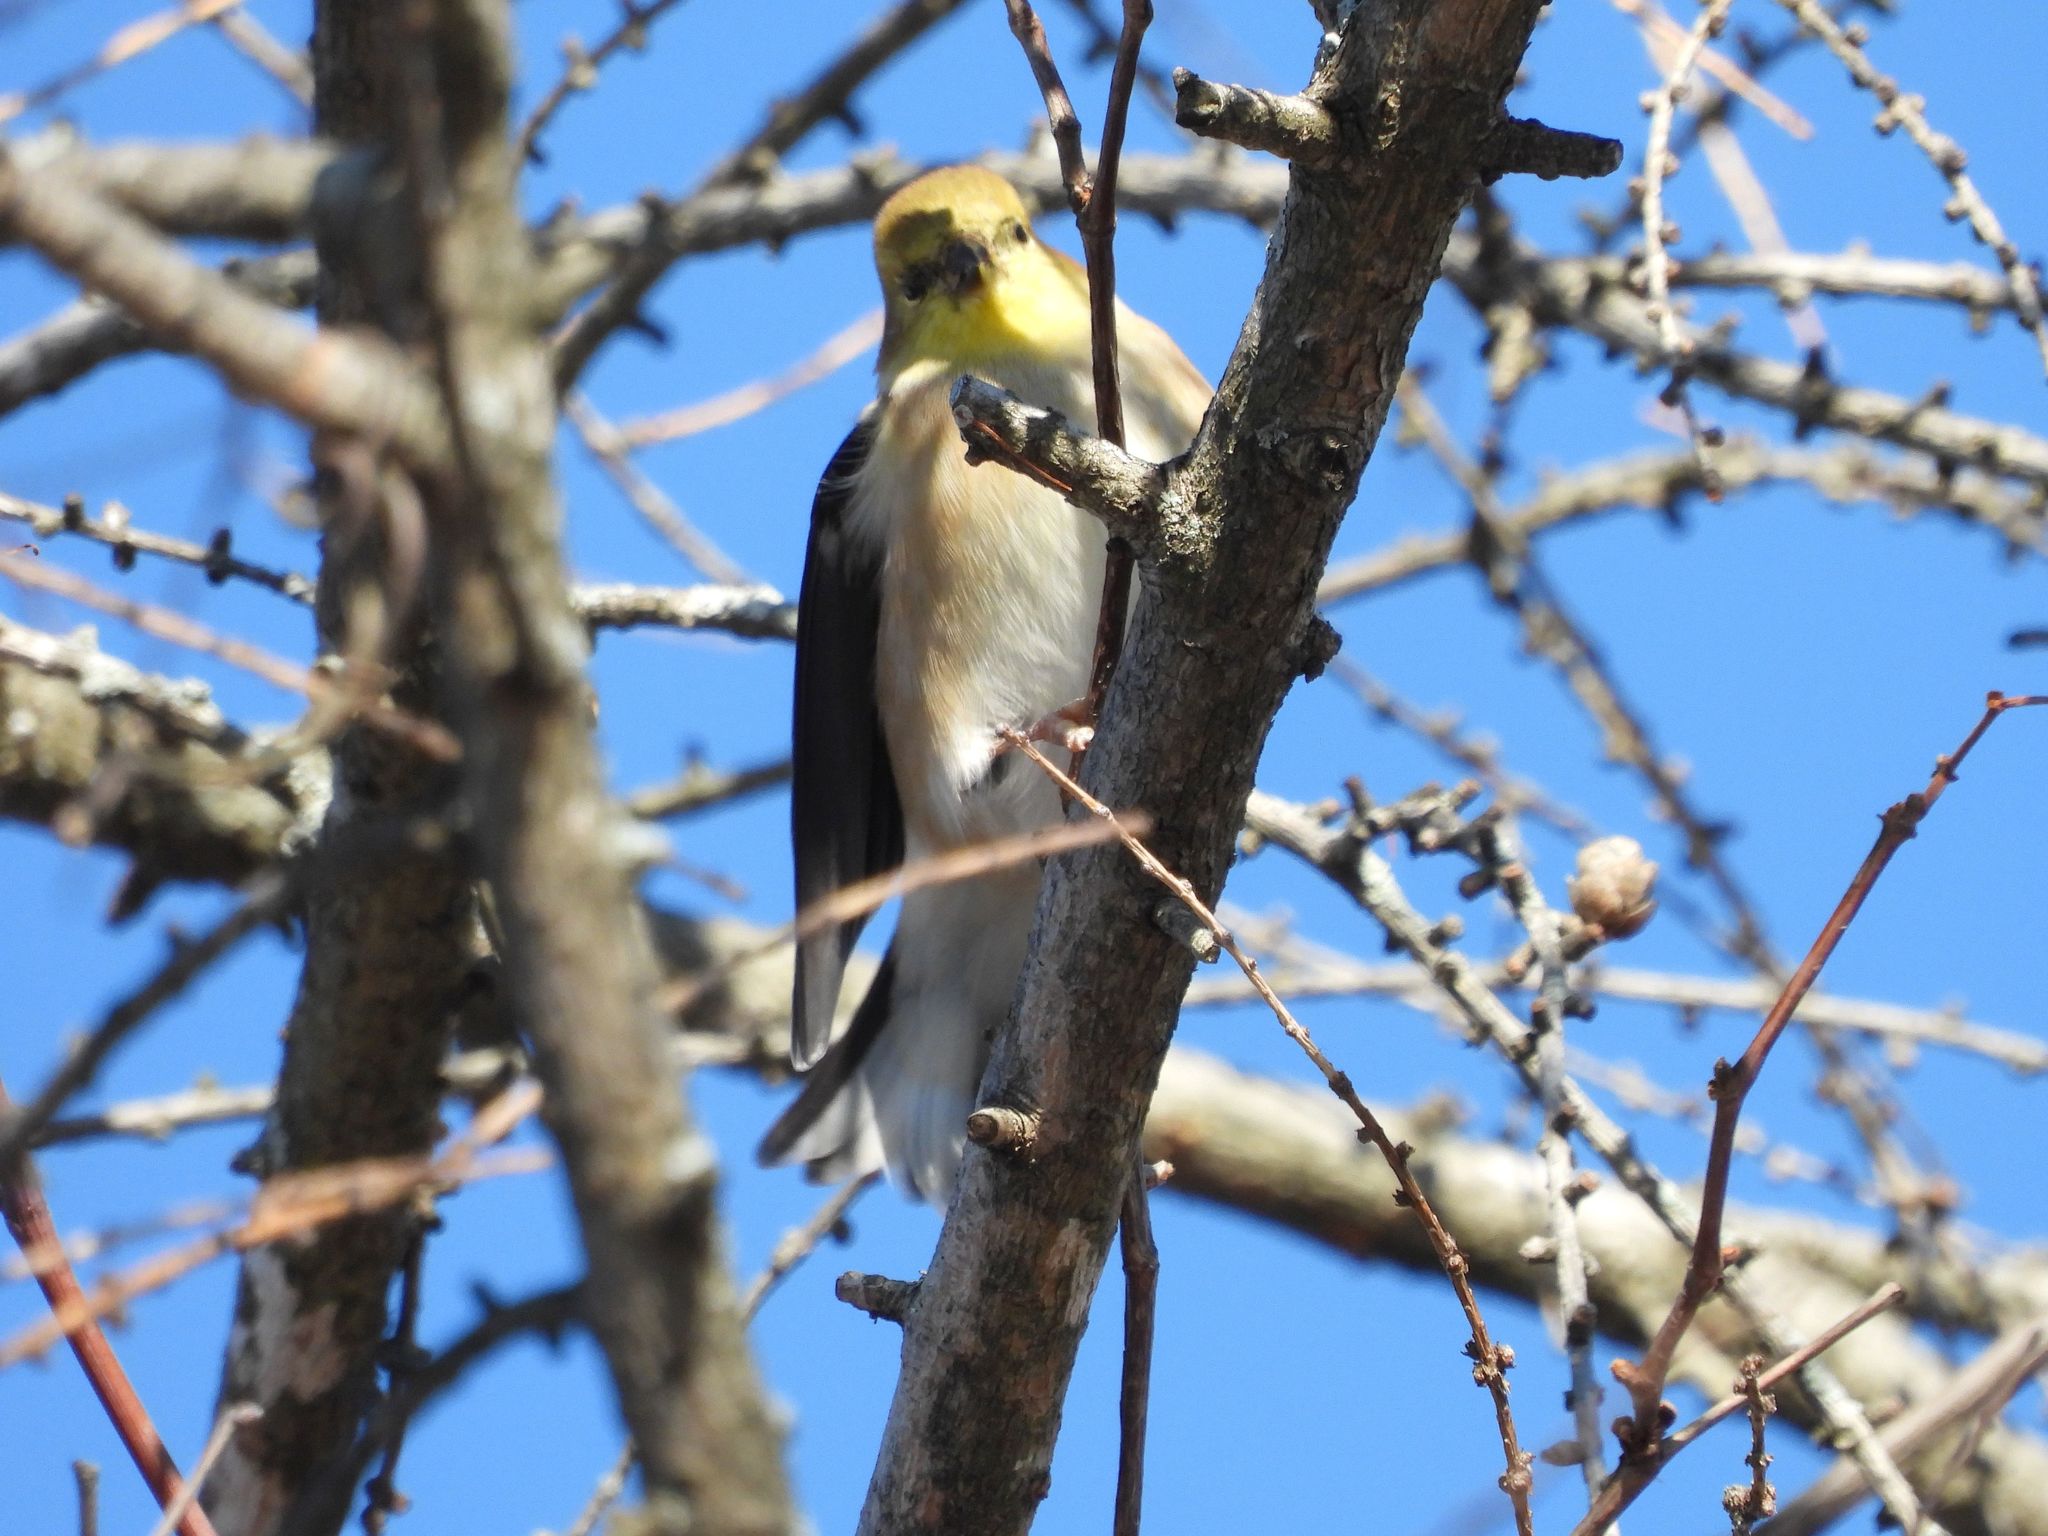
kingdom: Animalia
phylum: Chordata
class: Aves
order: Passeriformes
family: Fringillidae
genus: Spinus
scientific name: Spinus tristis
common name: American goldfinch
